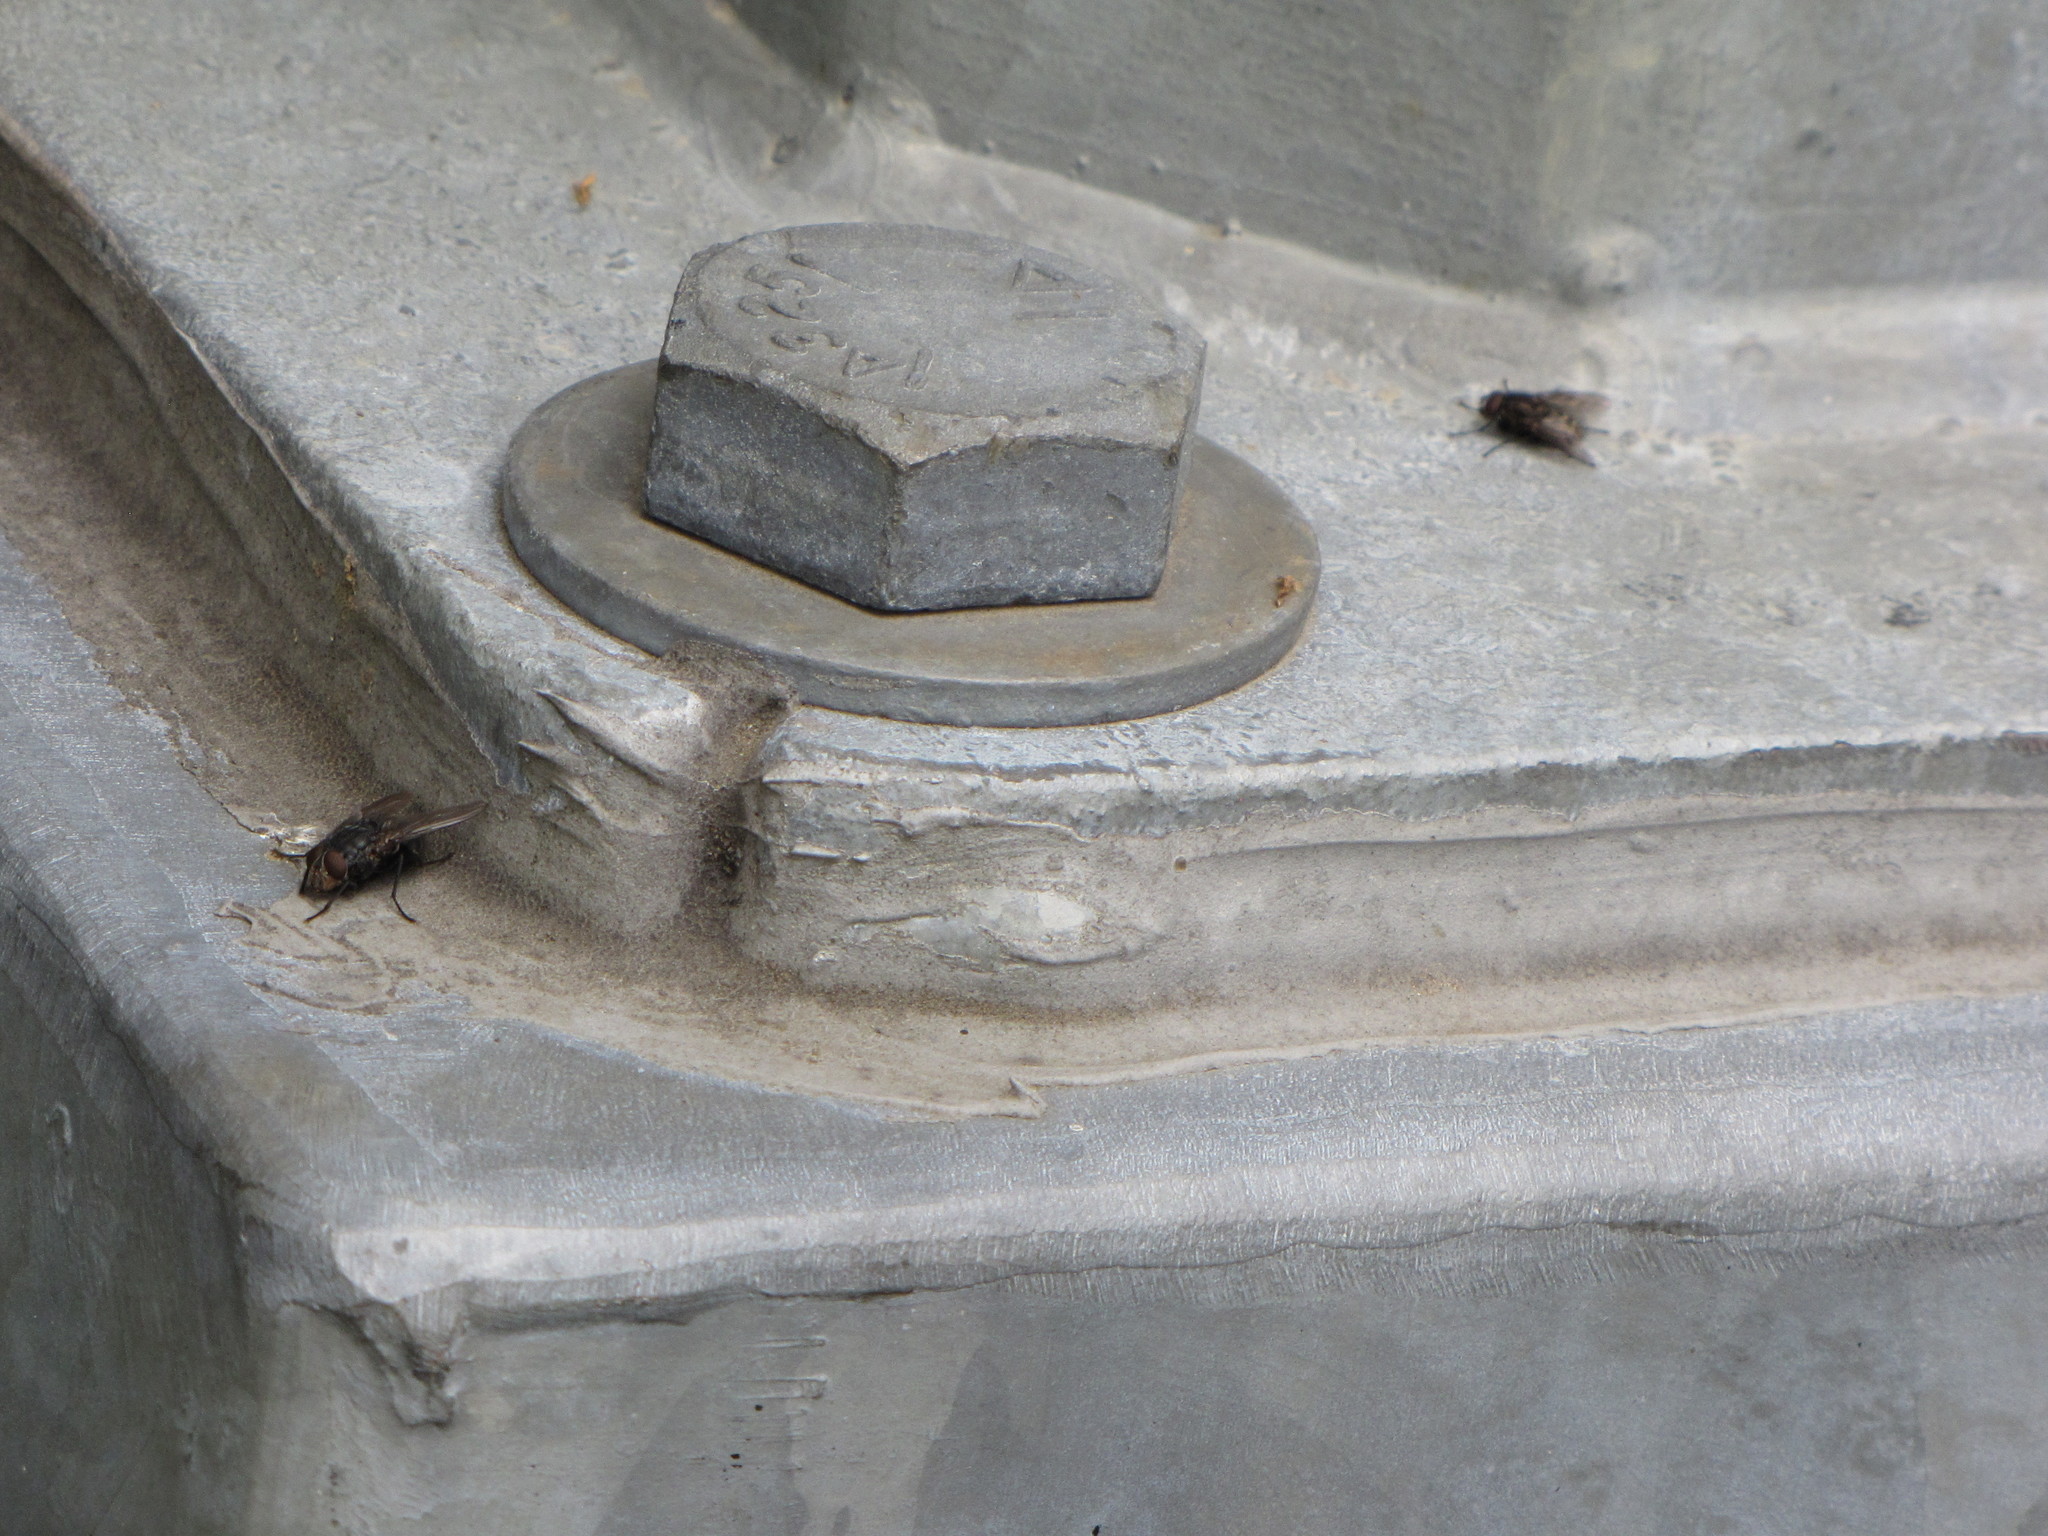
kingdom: Animalia
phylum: Arthropoda
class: Insecta
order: Diptera
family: Calliphoridae
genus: Calliphora
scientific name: Calliphora vicina
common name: Common blow flie
